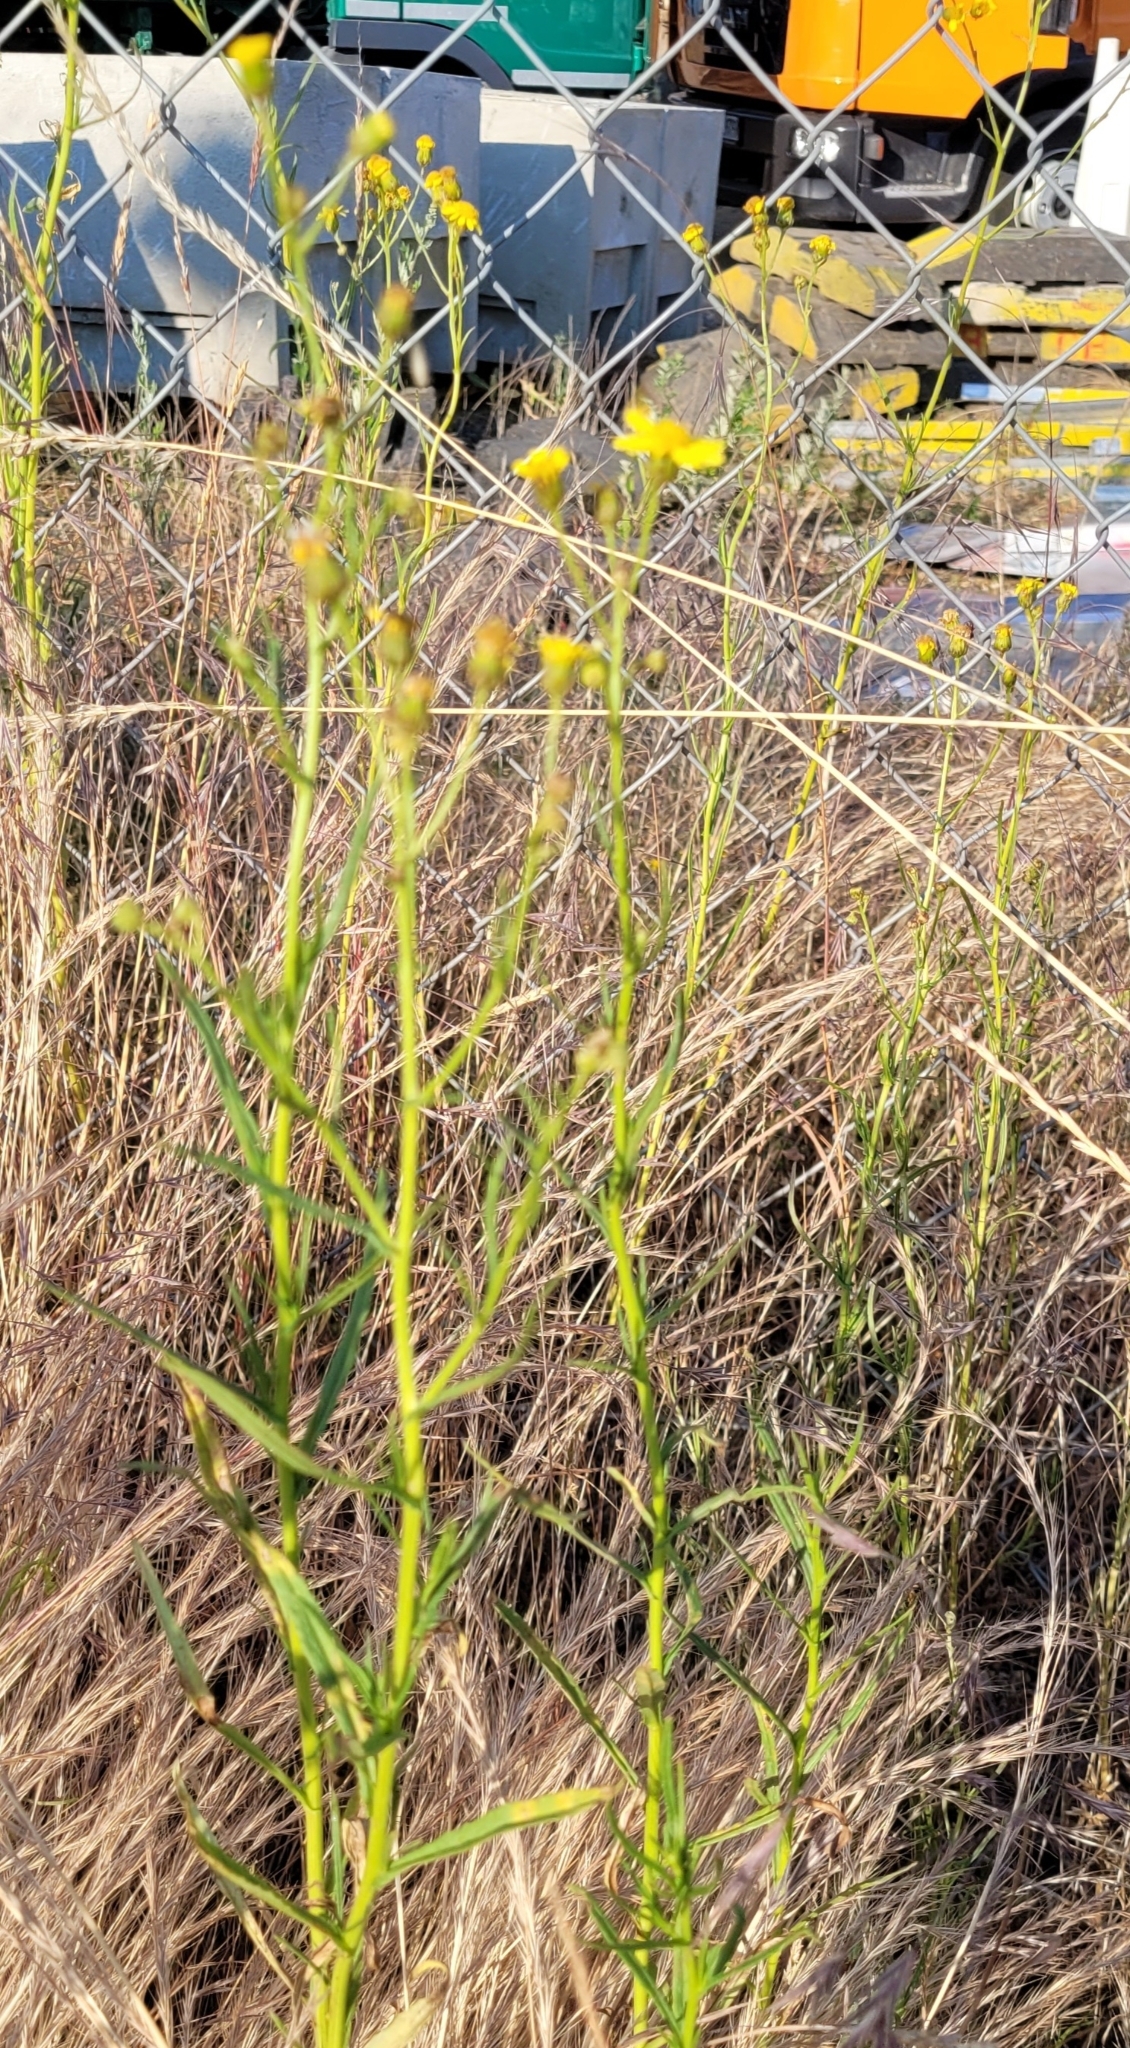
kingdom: Plantae
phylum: Tracheophyta
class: Magnoliopsida
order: Asterales
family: Asteraceae
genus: Senecio
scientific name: Senecio inaequidens
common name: Narrow-leaved ragwort
